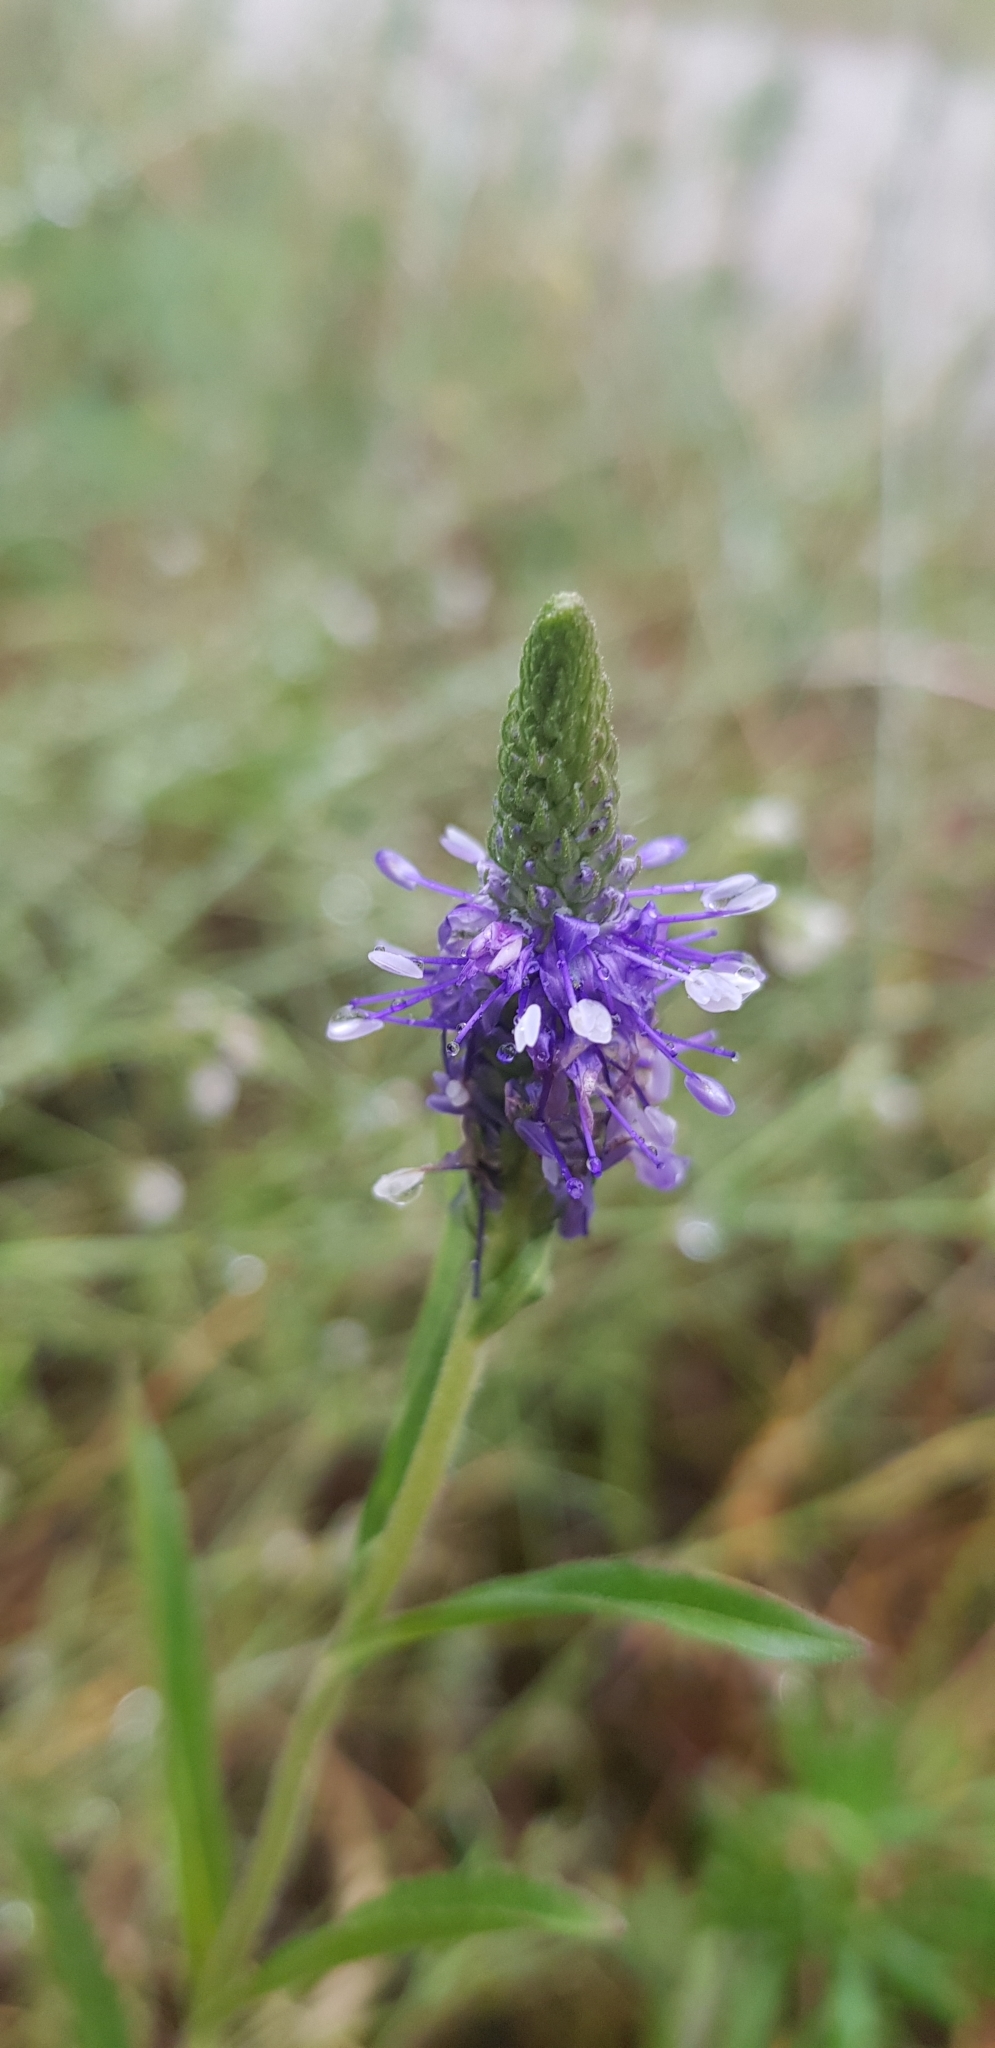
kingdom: Plantae
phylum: Tracheophyta
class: Magnoliopsida
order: Lamiales
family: Plantaginaceae
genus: Veronica
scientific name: Veronica spicata
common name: Spiked speedwell
